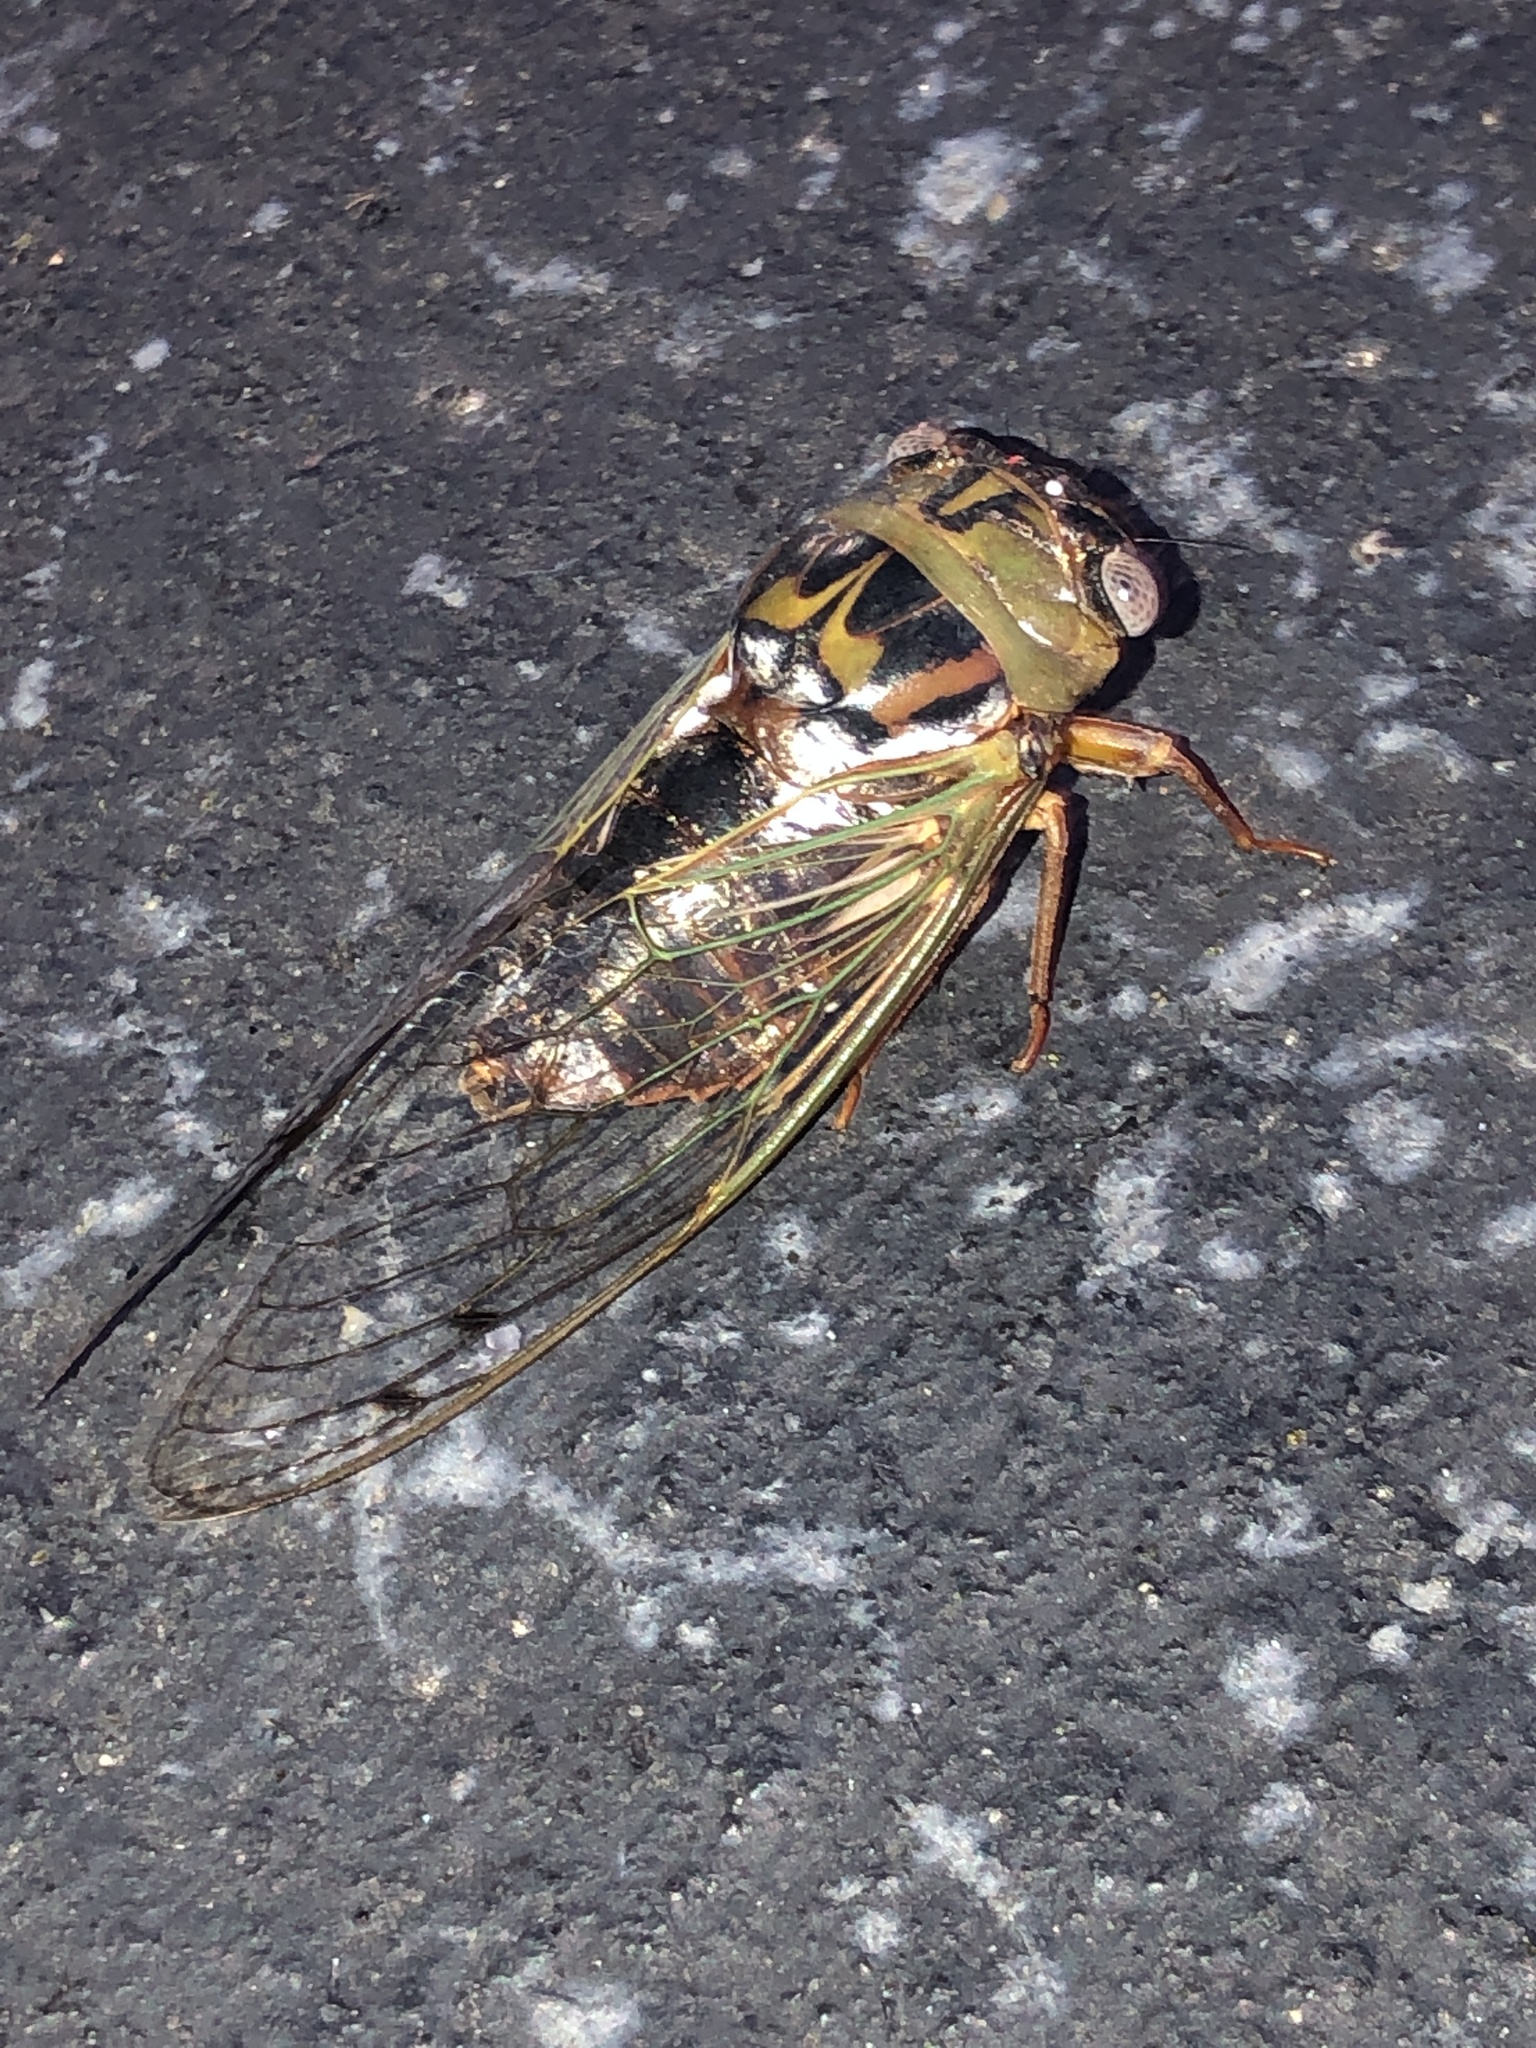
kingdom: Animalia
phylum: Arthropoda
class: Insecta
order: Hemiptera
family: Cicadidae
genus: Megatibicen
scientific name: Megatibicen resh
